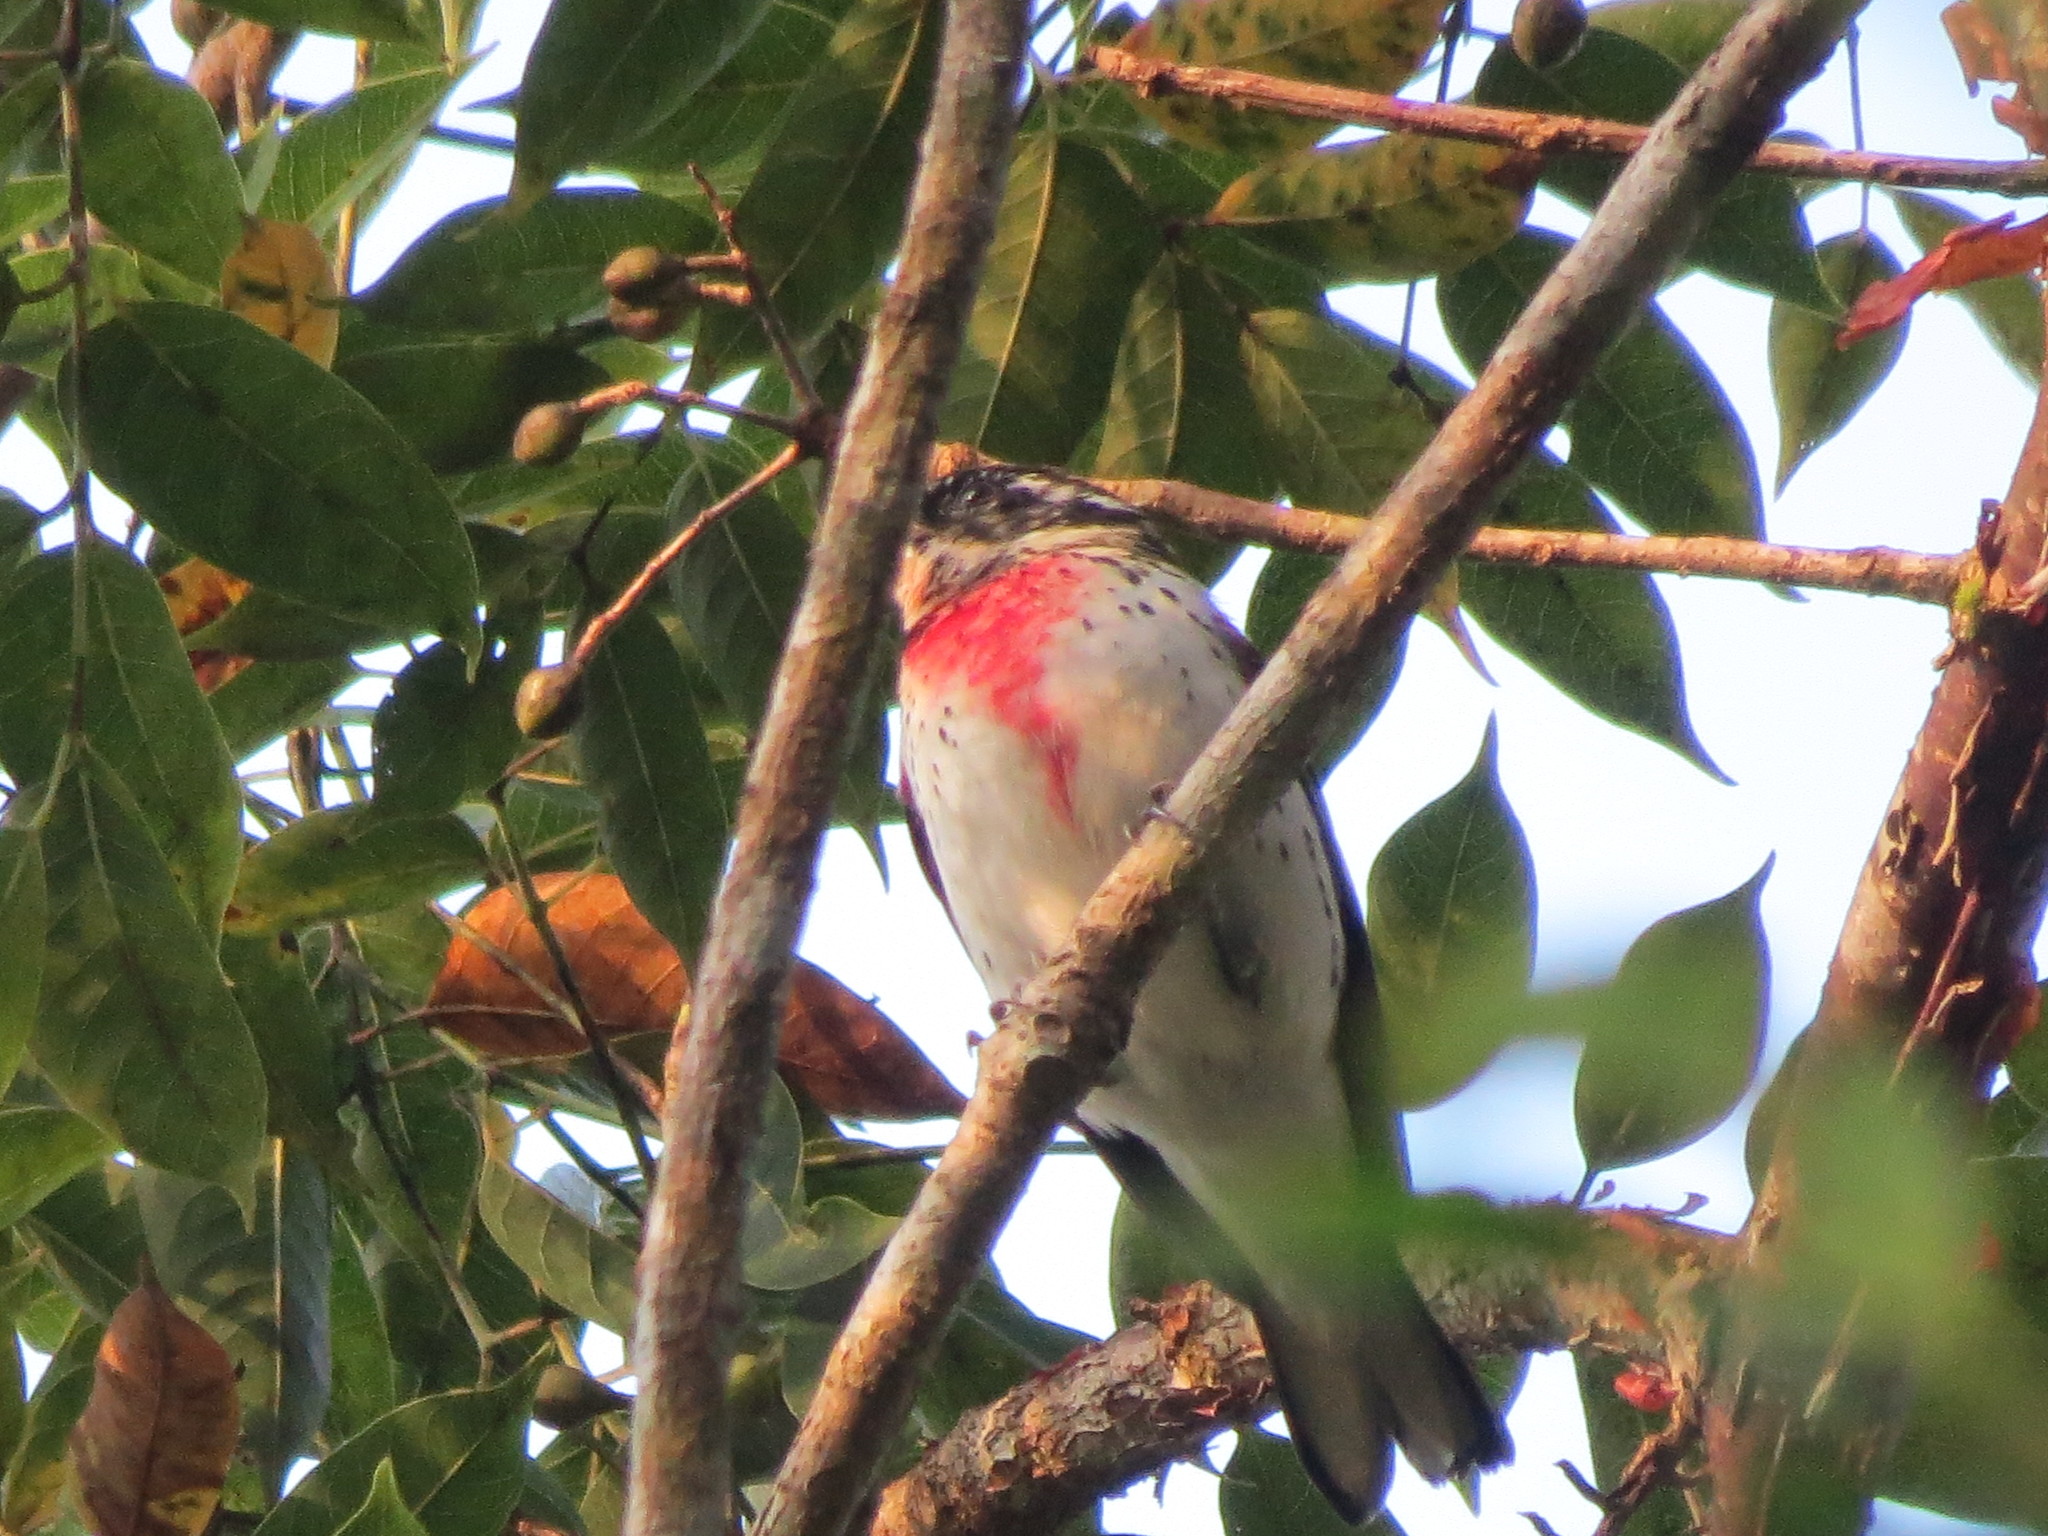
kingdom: Animalia
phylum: Chordata
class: Aves
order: Passeriformes
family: Cardinalidae
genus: Pheucticus
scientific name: Pheucticus ludovicianus
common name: Rose-breasted grosbeak
